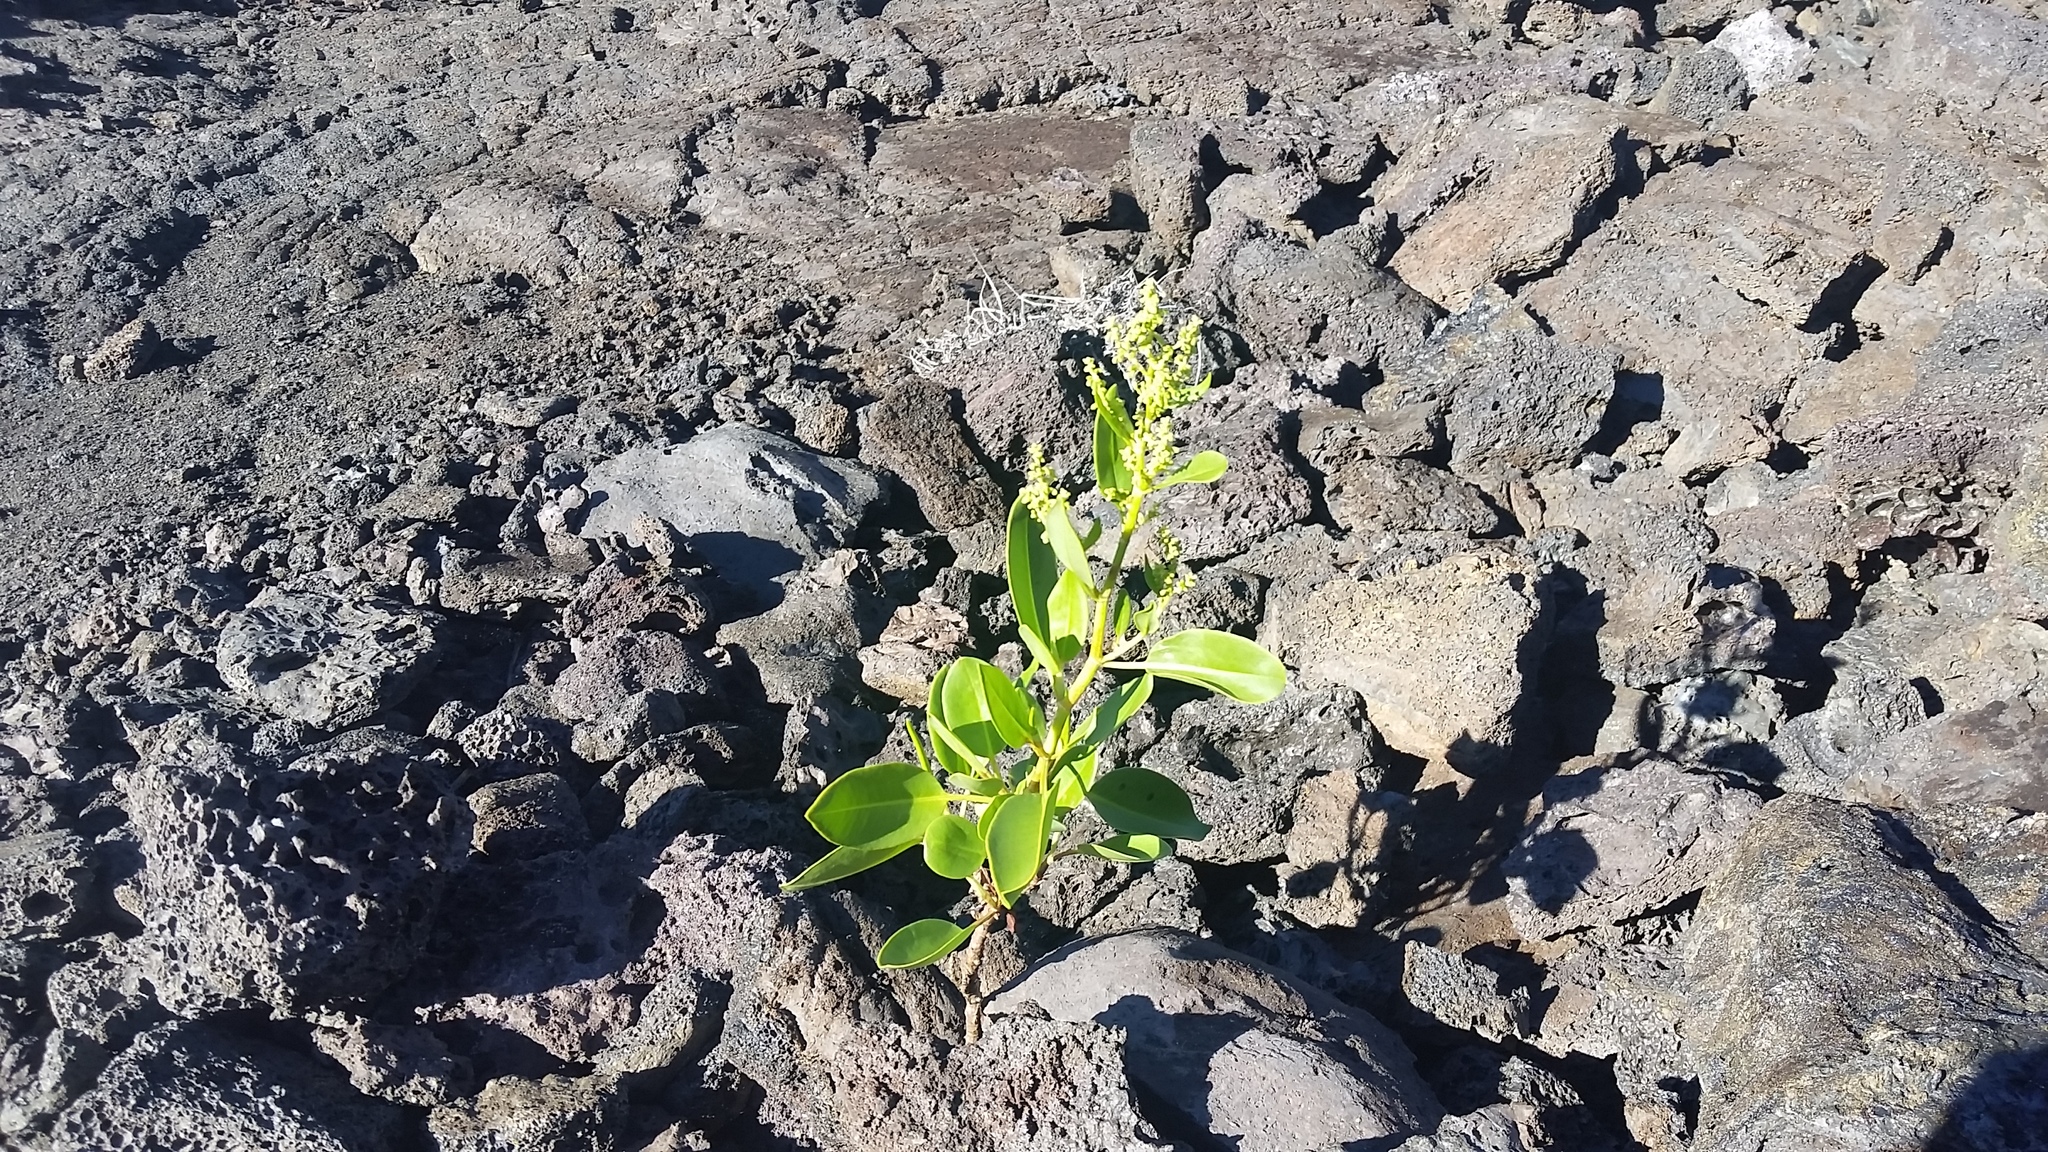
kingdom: Plantae
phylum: Tracheophyta
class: Magnoliopsida
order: Caryophyllales
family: Polygonaceae
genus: Rumex
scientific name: Rumex skottsbergii
